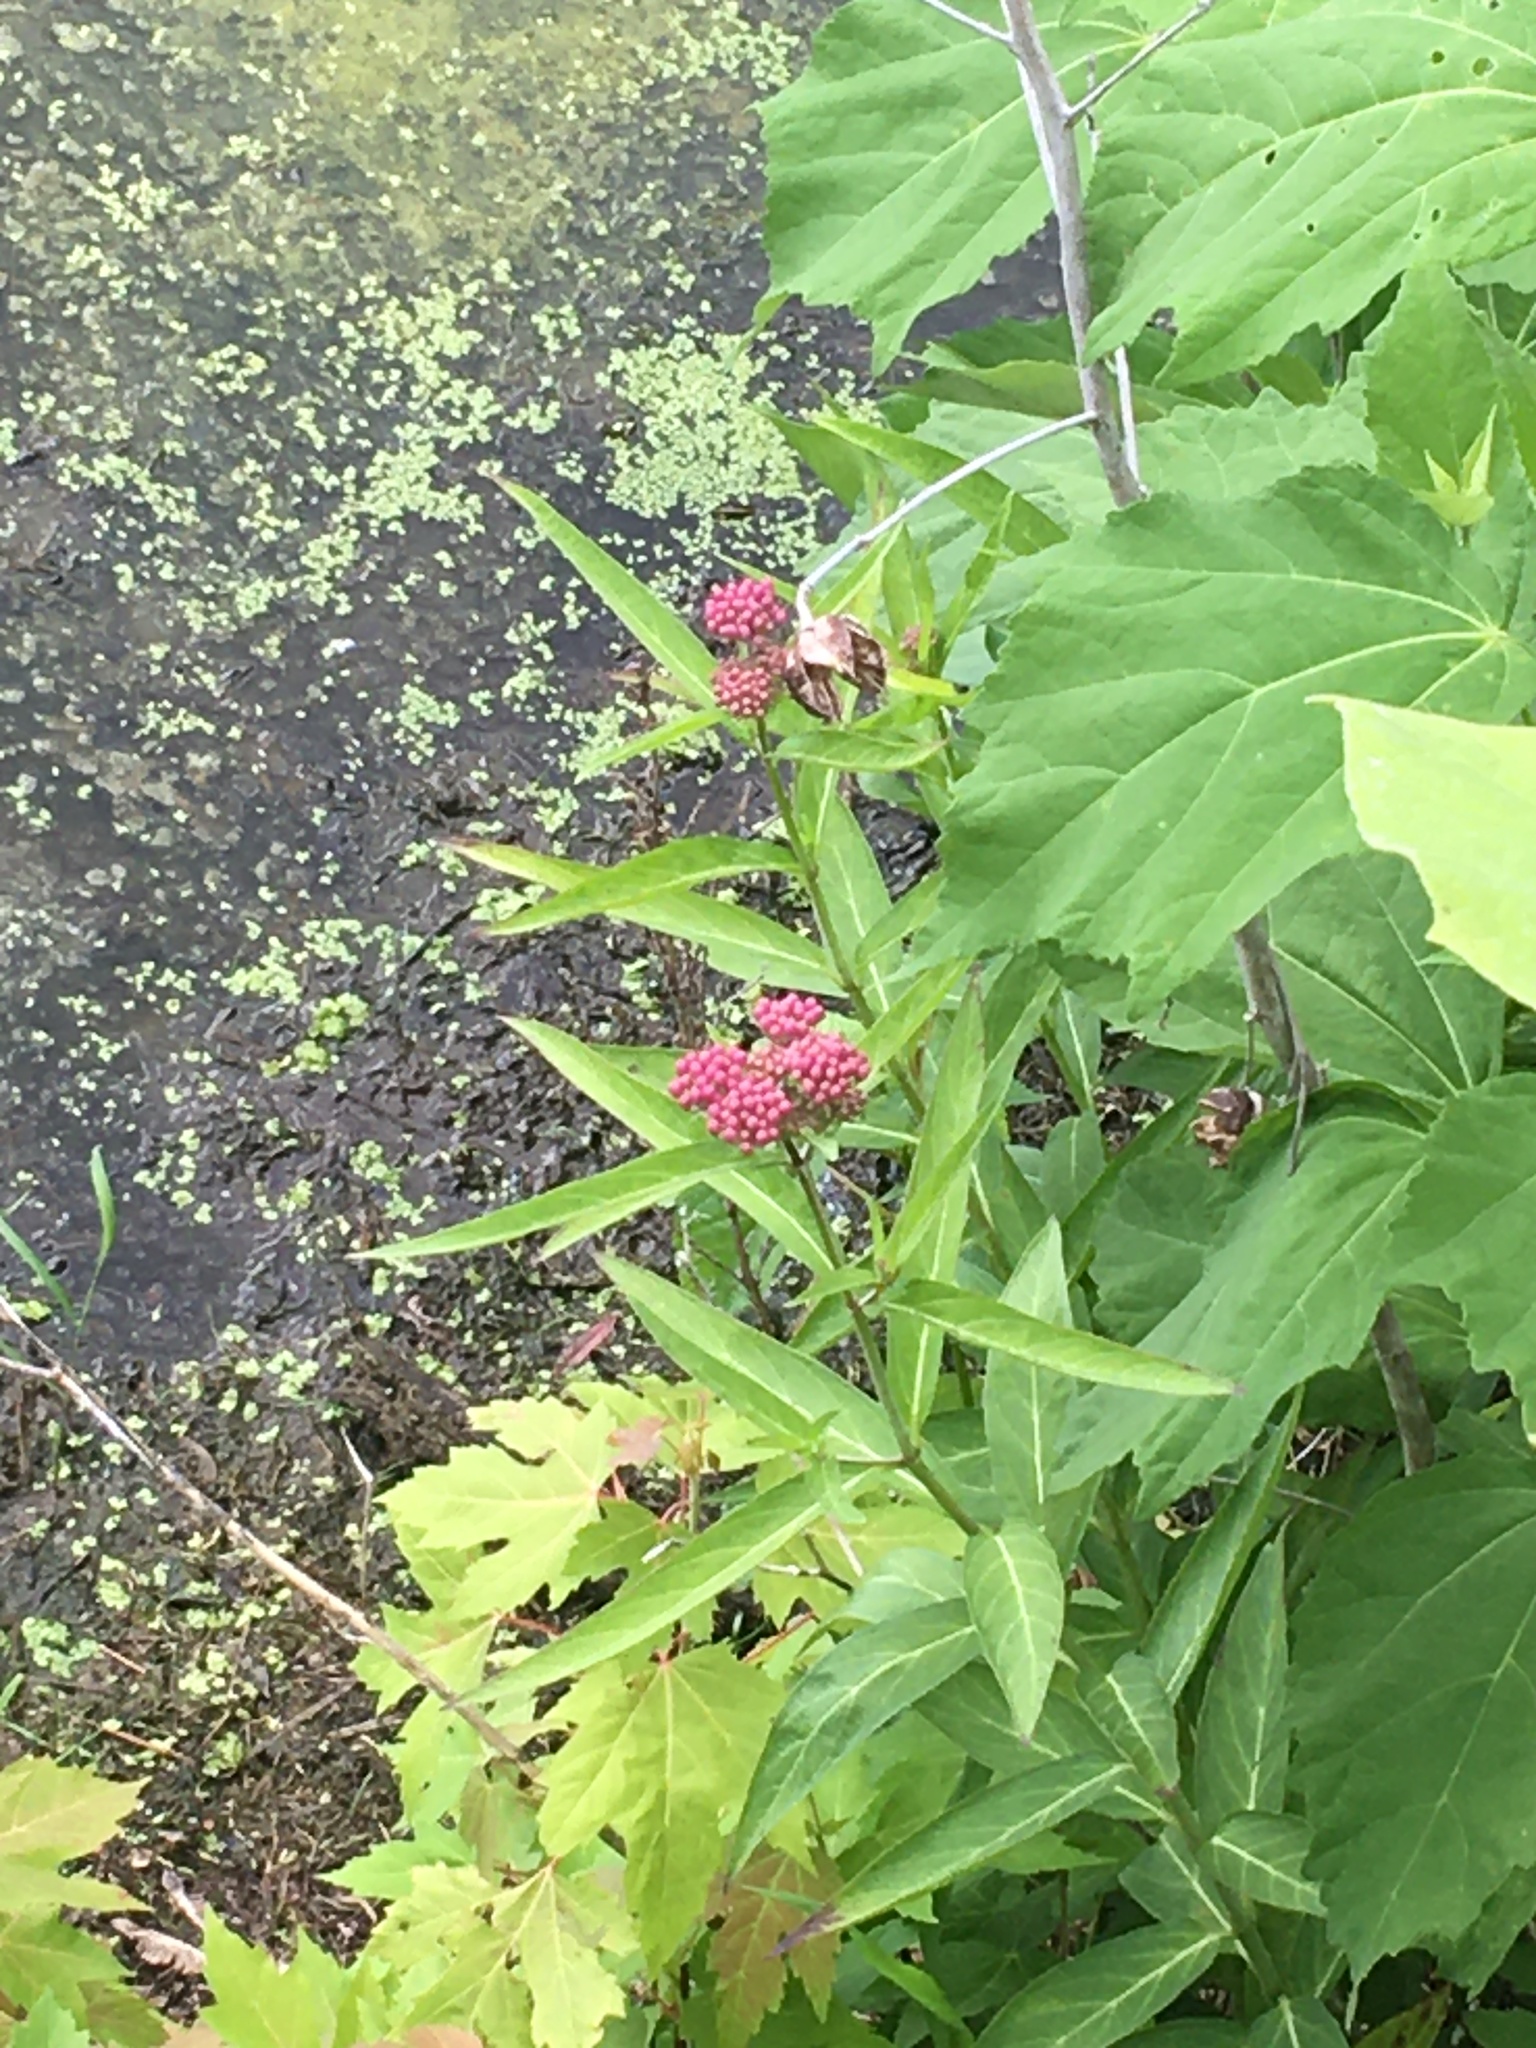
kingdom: Plantae
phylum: Tracheophyta
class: Magnoliopsida
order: Gentianales
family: Apocynaceae
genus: Asclepias
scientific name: Asclepias incarnata
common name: Swamp milkweed
